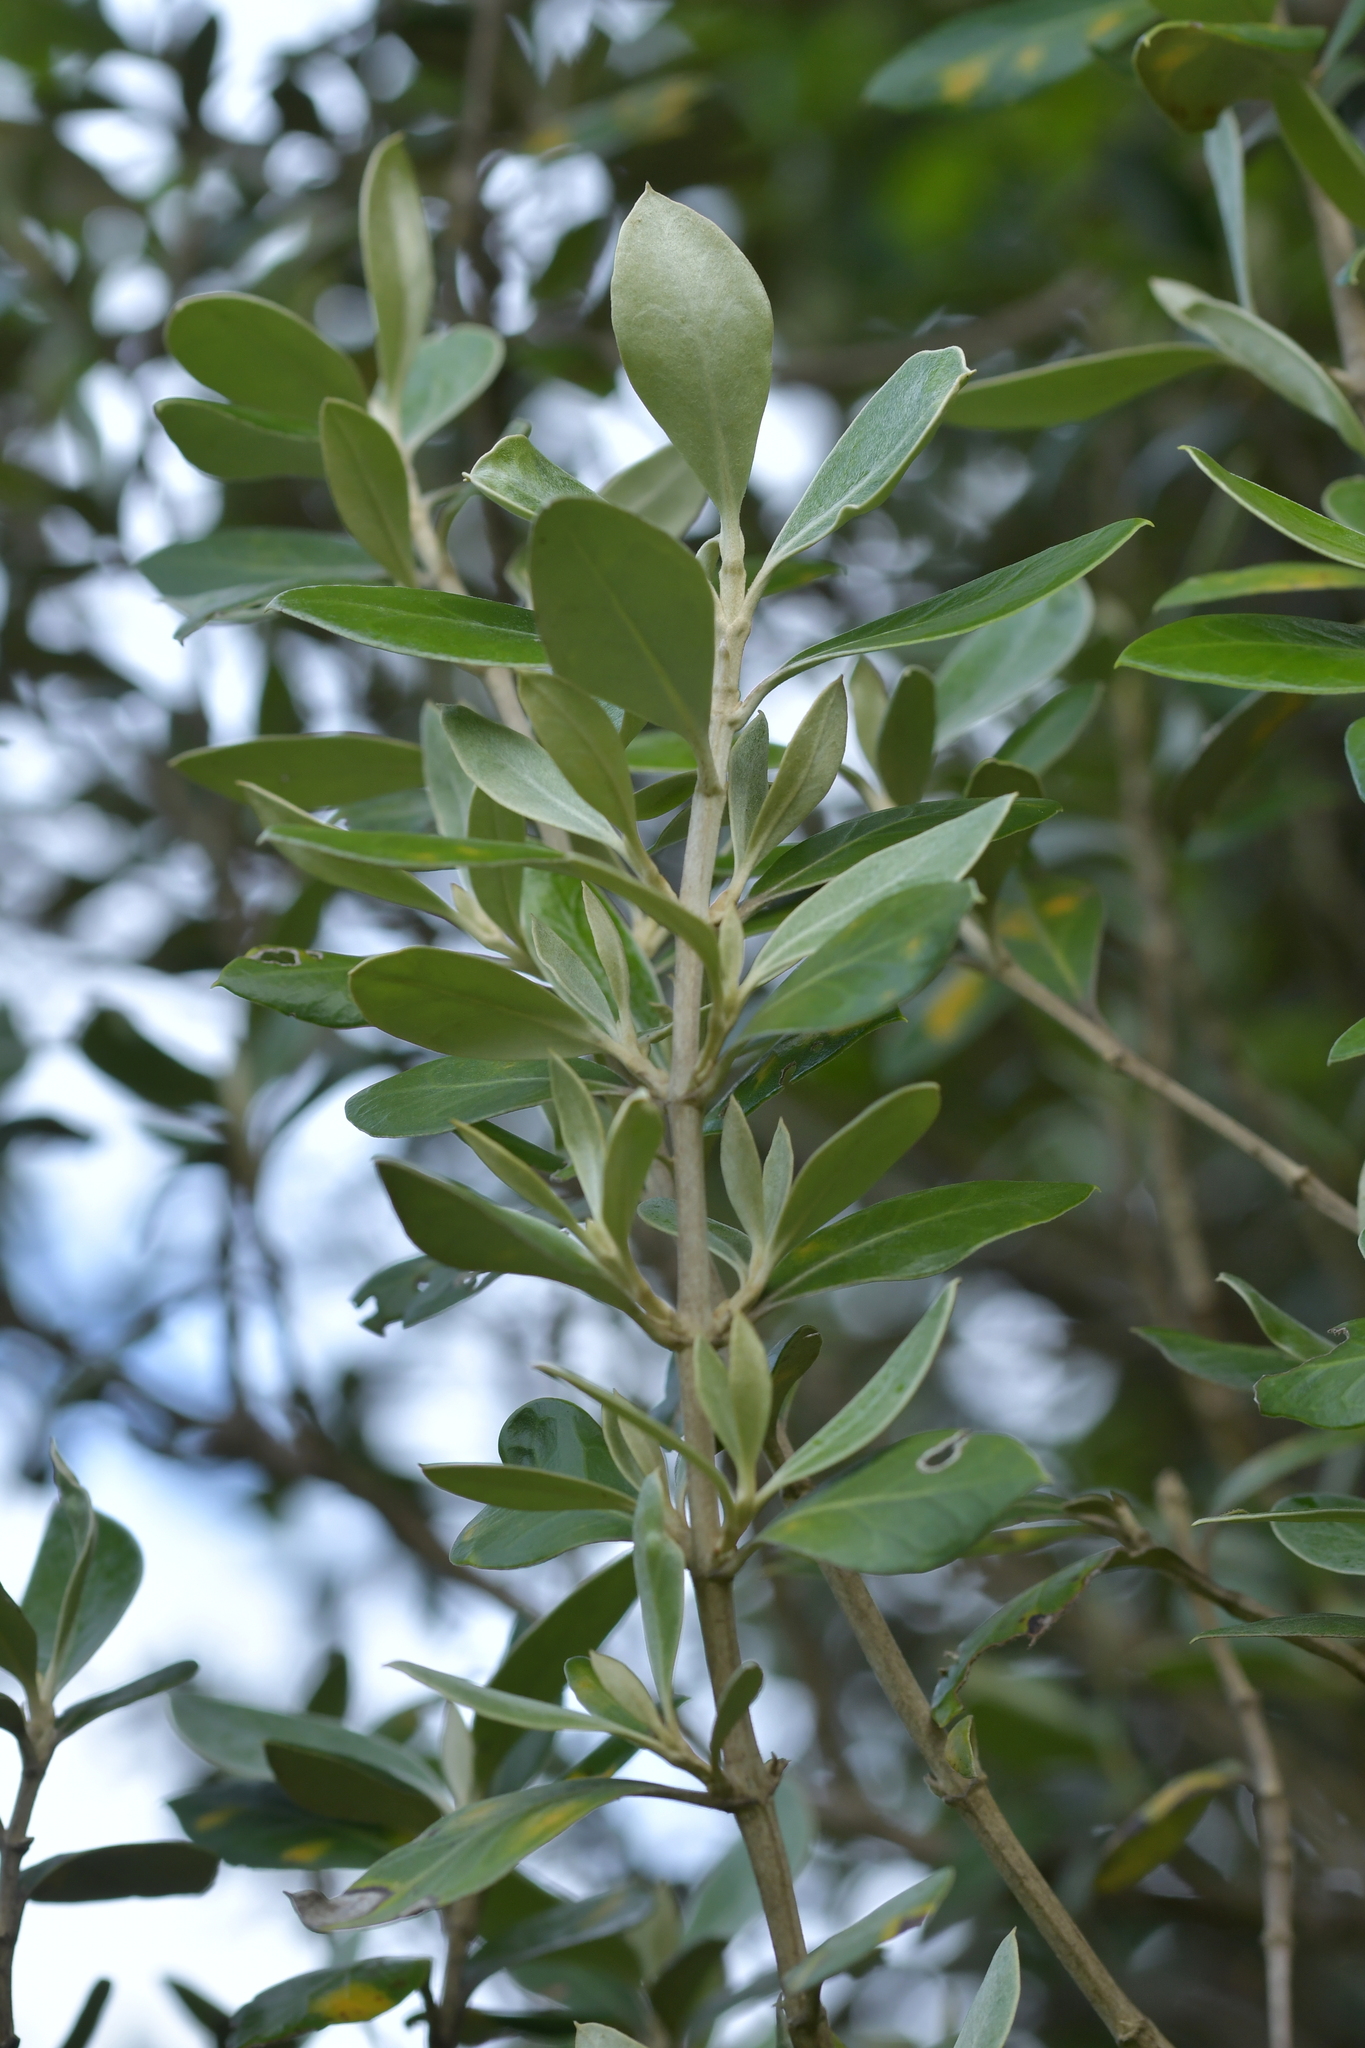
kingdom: Plantae
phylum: Tracheophyta
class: Magnoliopsida
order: Asterales
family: Asteraceae
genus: Olearia
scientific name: Olearia traversiorum
